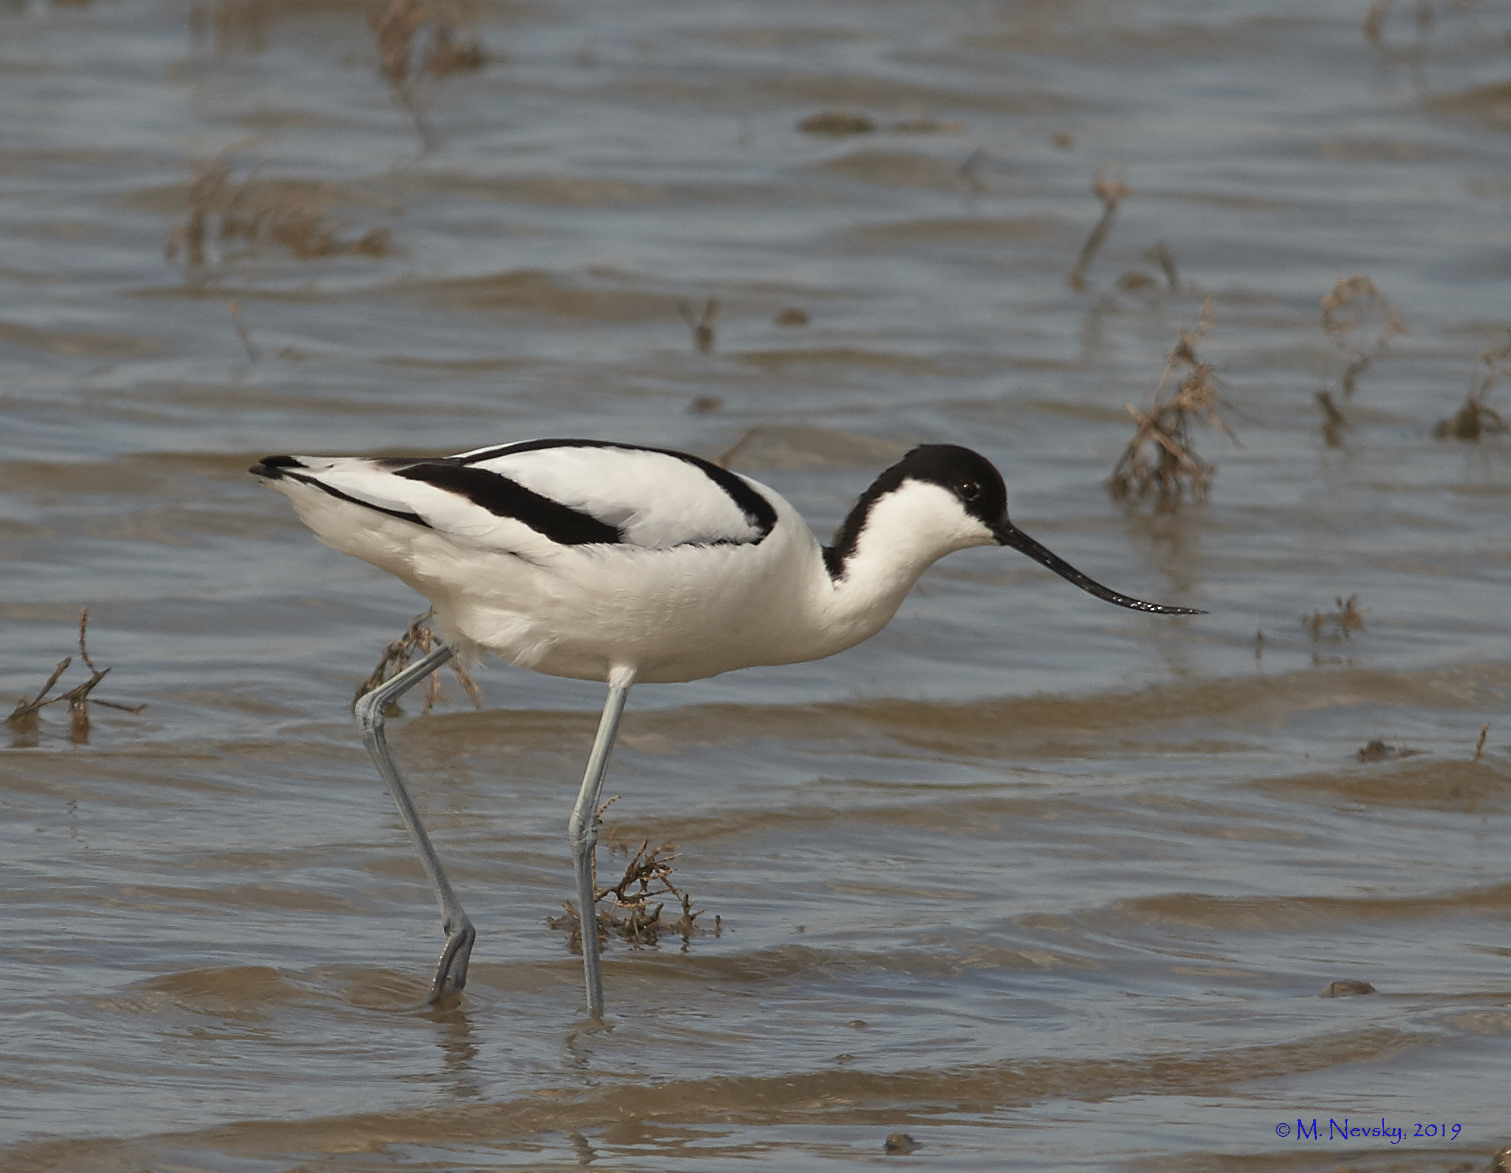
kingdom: Animalia
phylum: Chordata
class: Aves
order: Charadriiformes
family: Recurvirostridae
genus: Recurvirostra
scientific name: Recurvirostra avosetta
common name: Pied avocet
